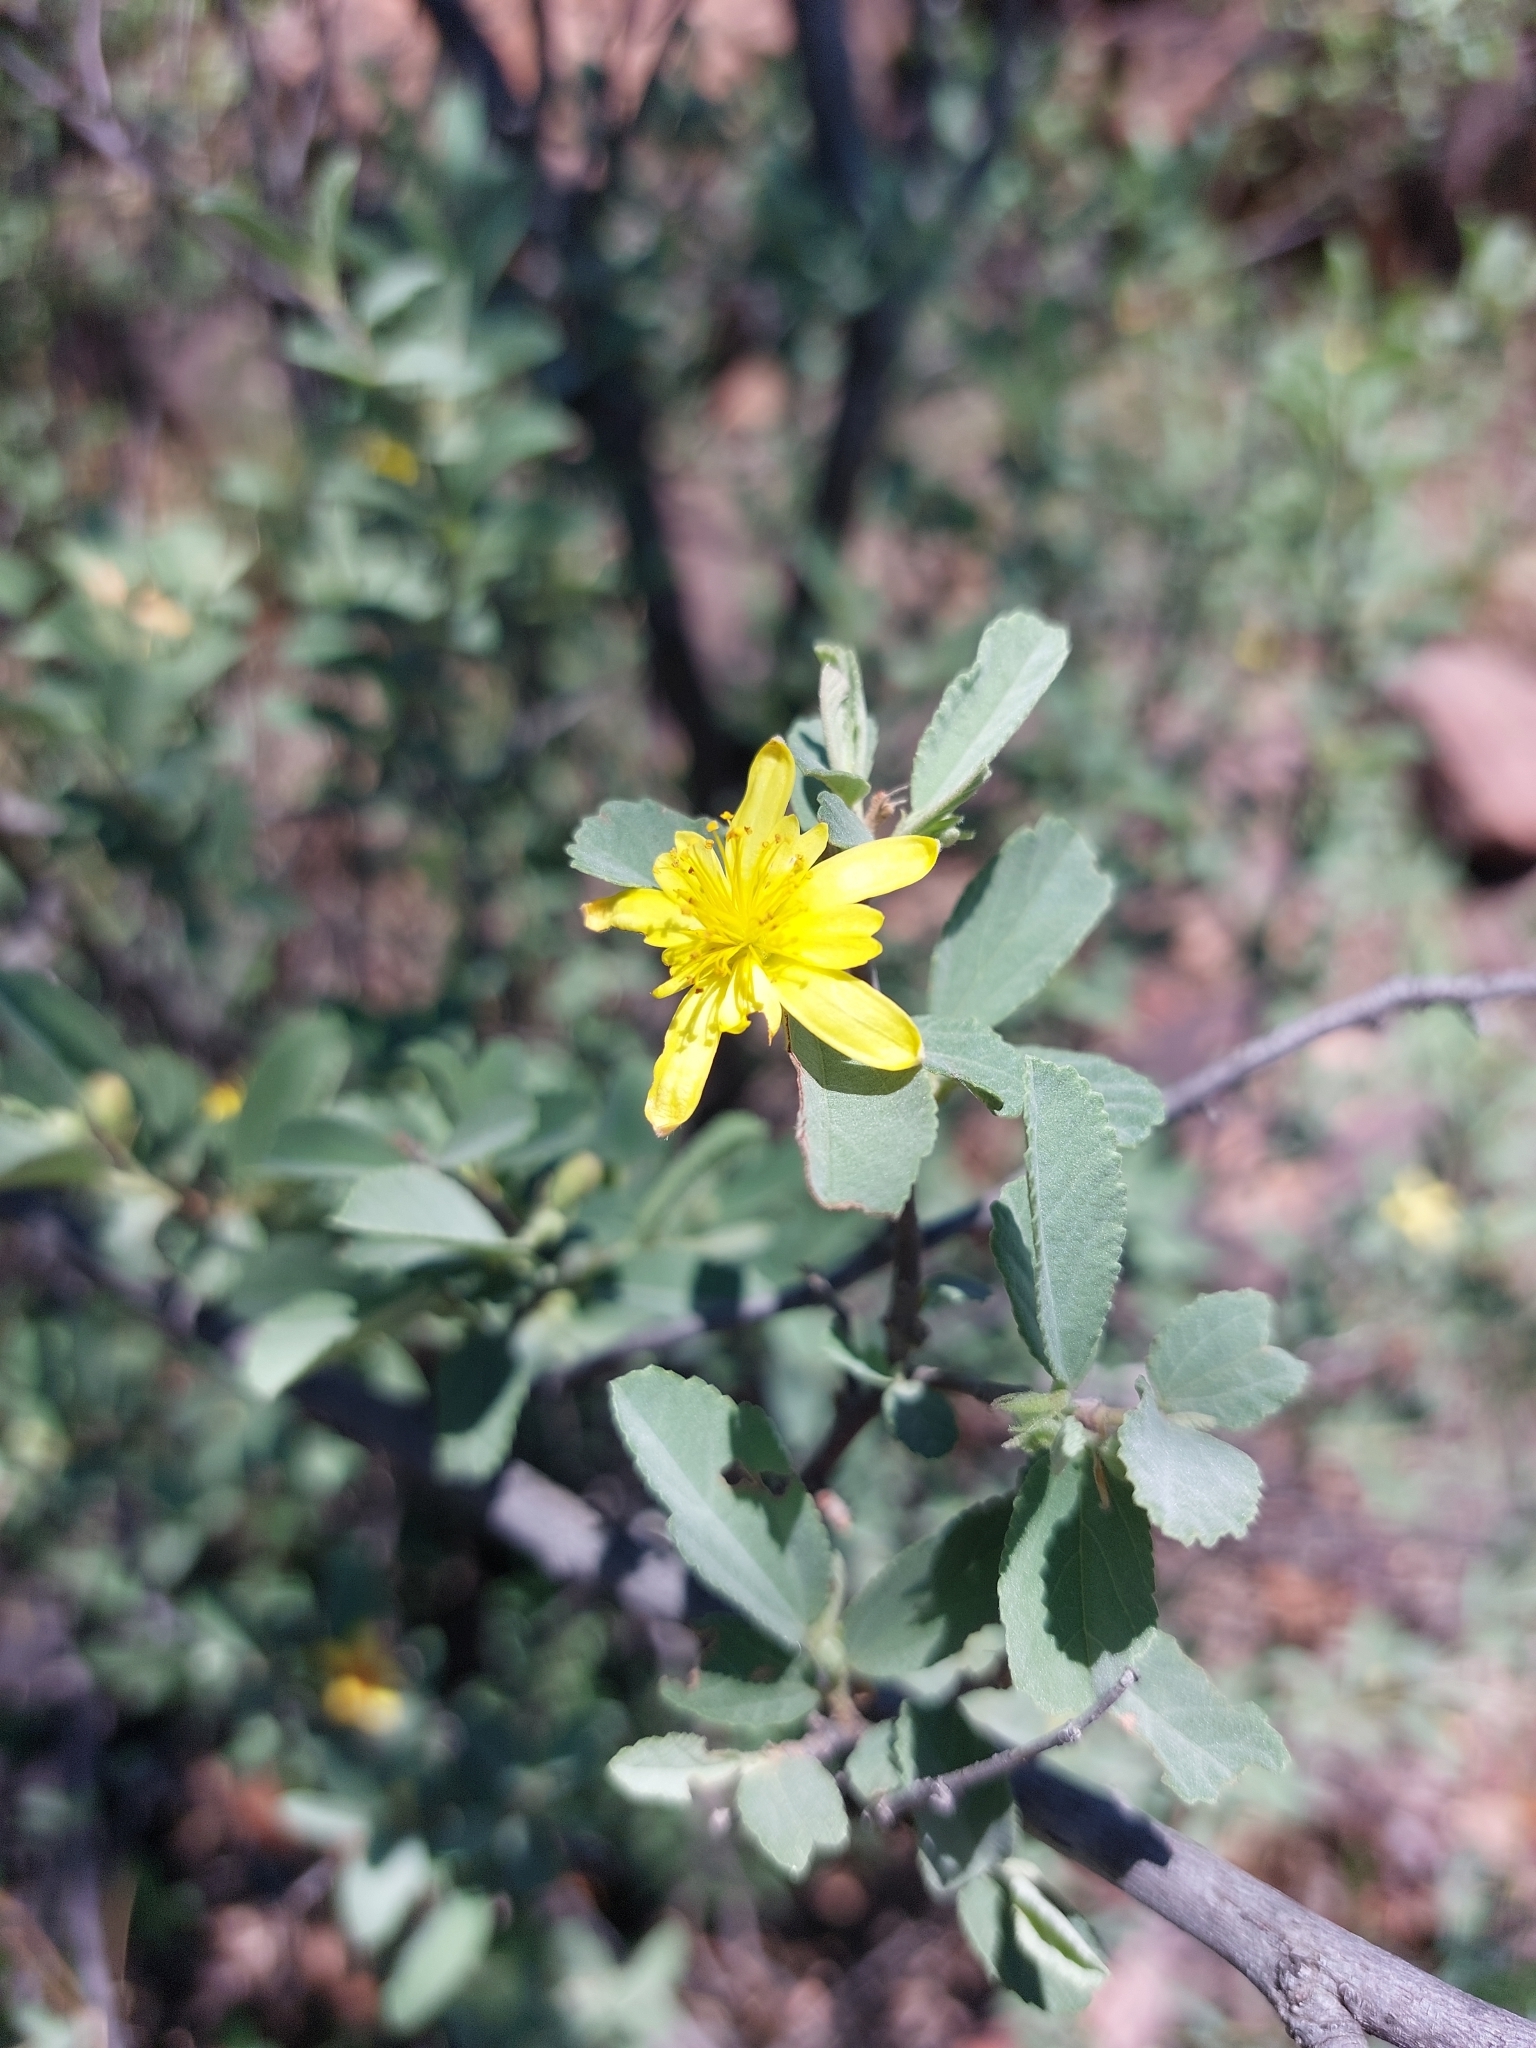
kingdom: Plantae
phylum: Tracheophyta
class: Magnoliopsida
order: Malvales
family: Malvaceae
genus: Grewia
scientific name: Grewia flava
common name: Brandy bush
